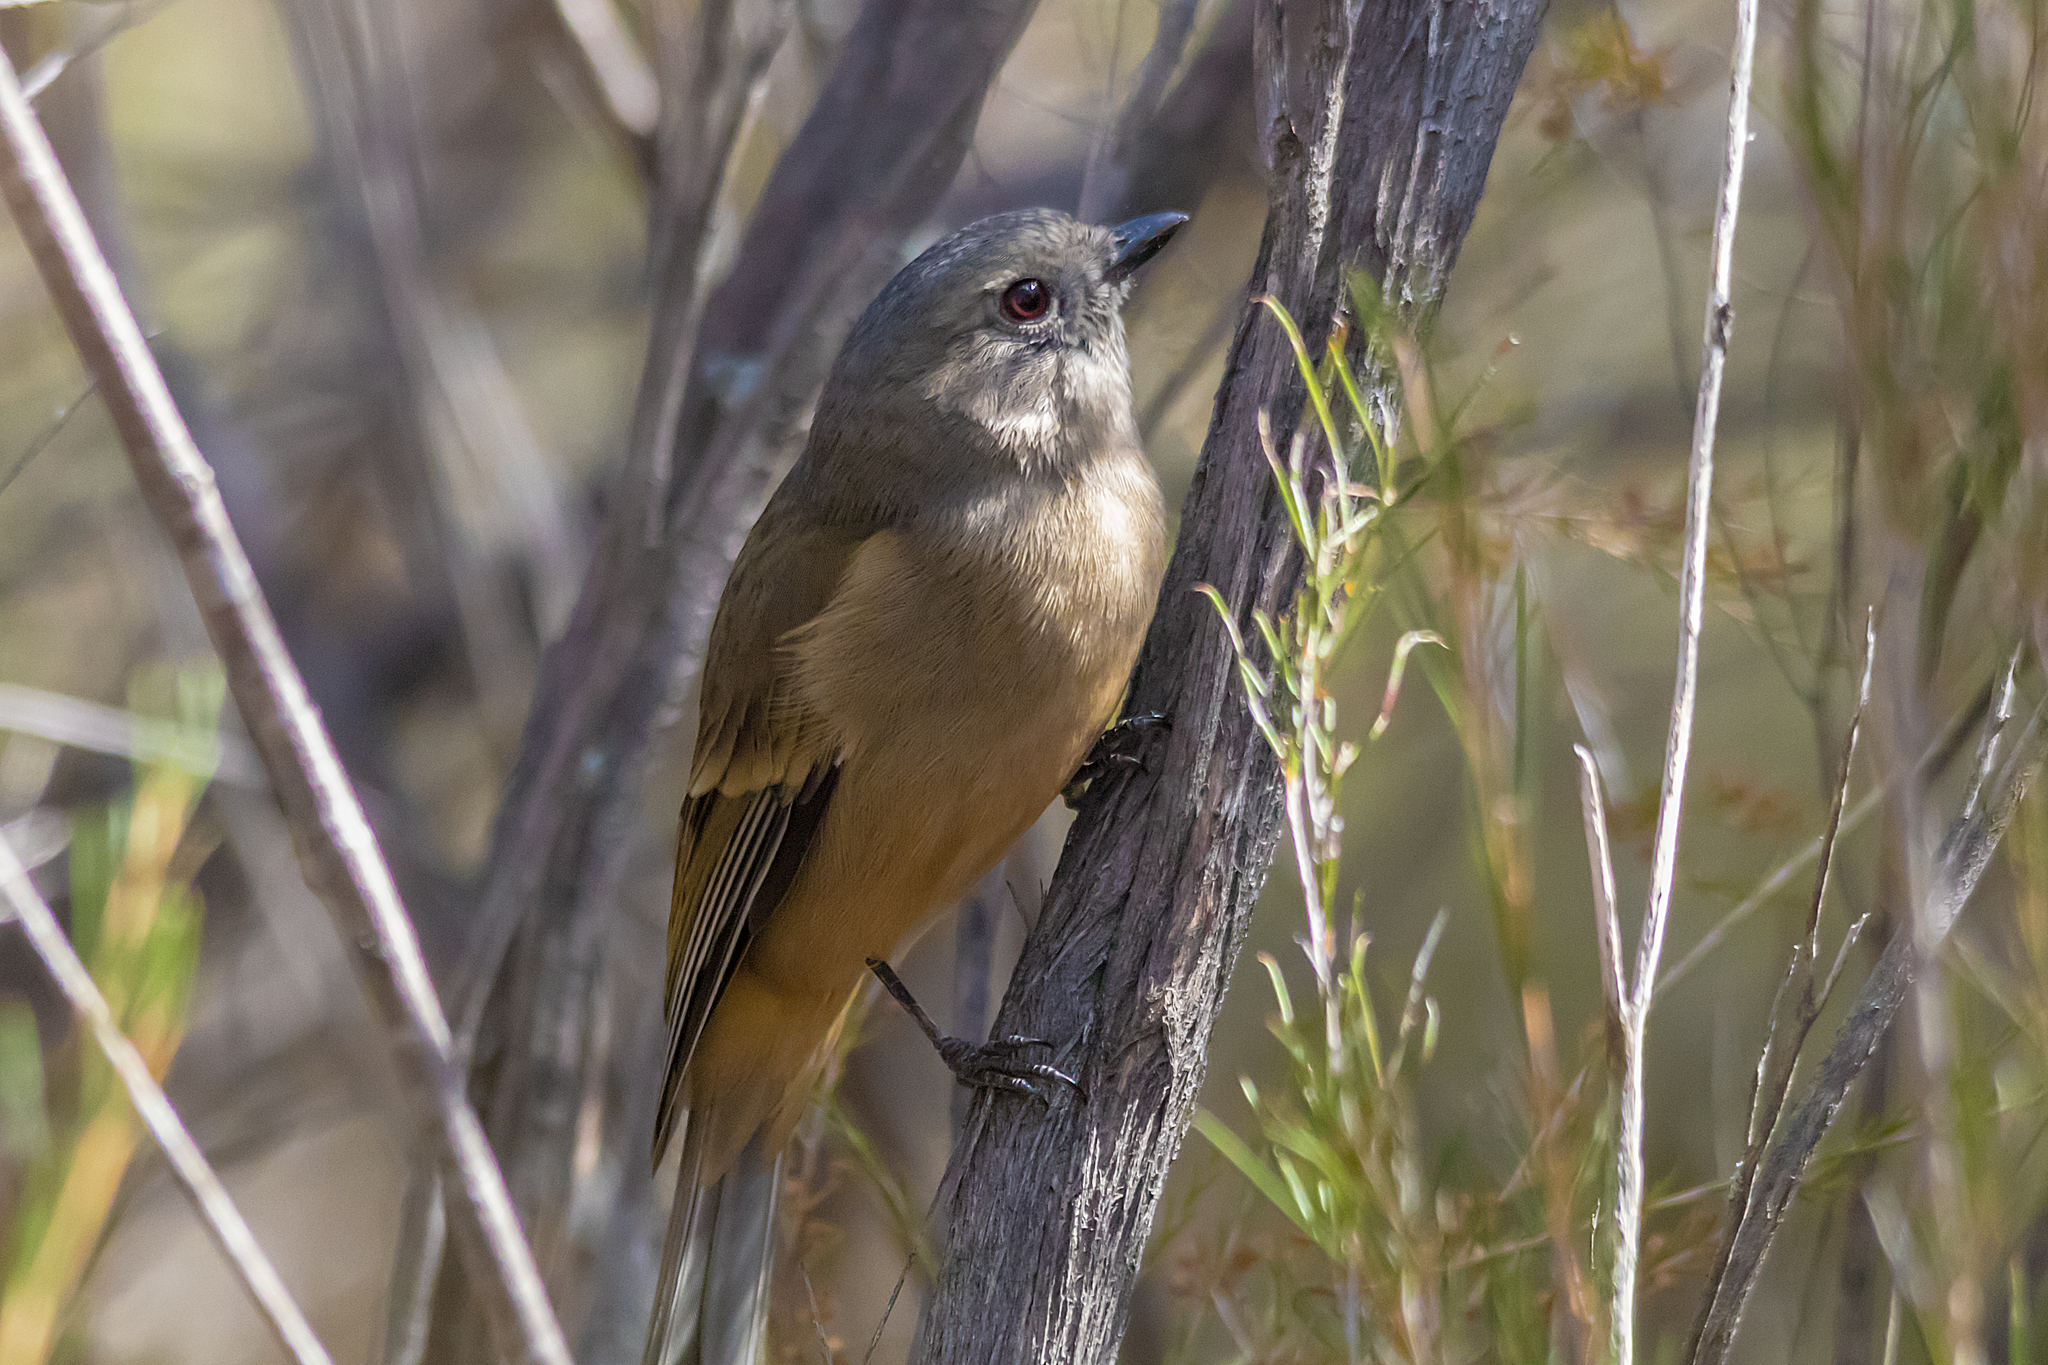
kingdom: Animalia
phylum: Chordata
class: Aves
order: Passeriformes
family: Pachycephalidae
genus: Pachycephala
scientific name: Pachycephala fuliginosa
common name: Western whistler
